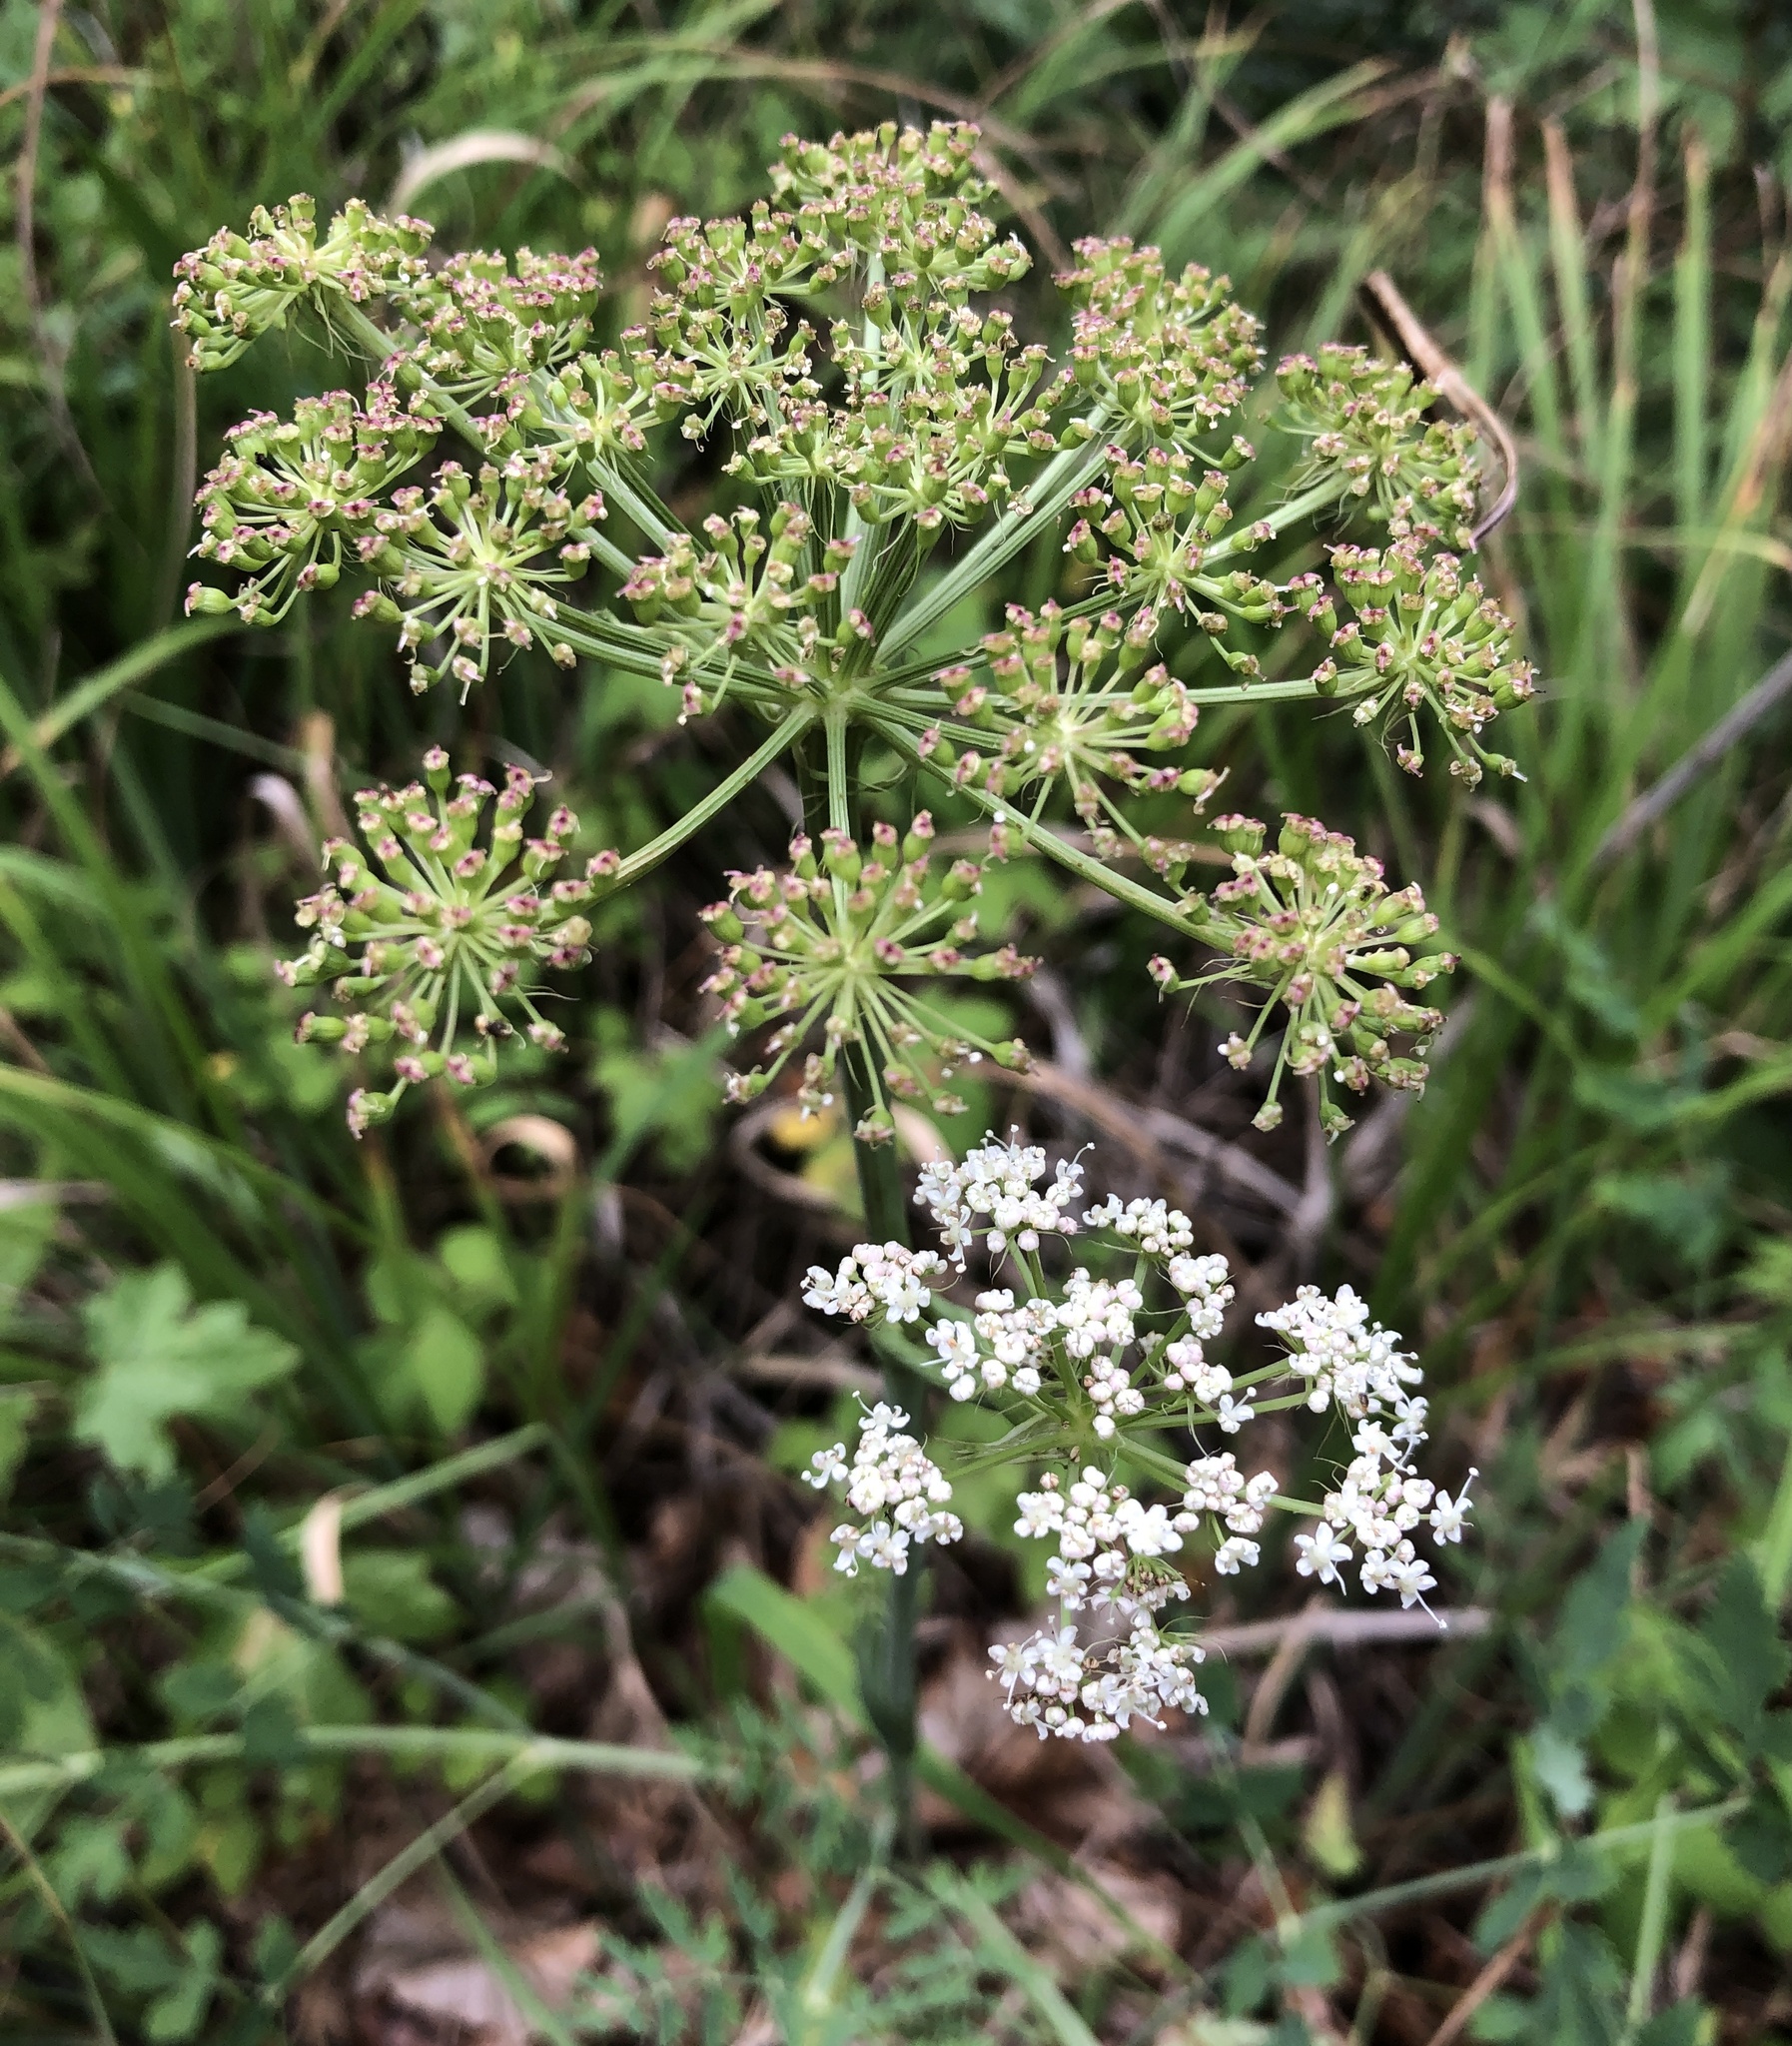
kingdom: Plantae
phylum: Tracheophyta
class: Magnoliopsida
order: Apiales
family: Apiaceae
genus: Cervaria
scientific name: Cervaria rivini
